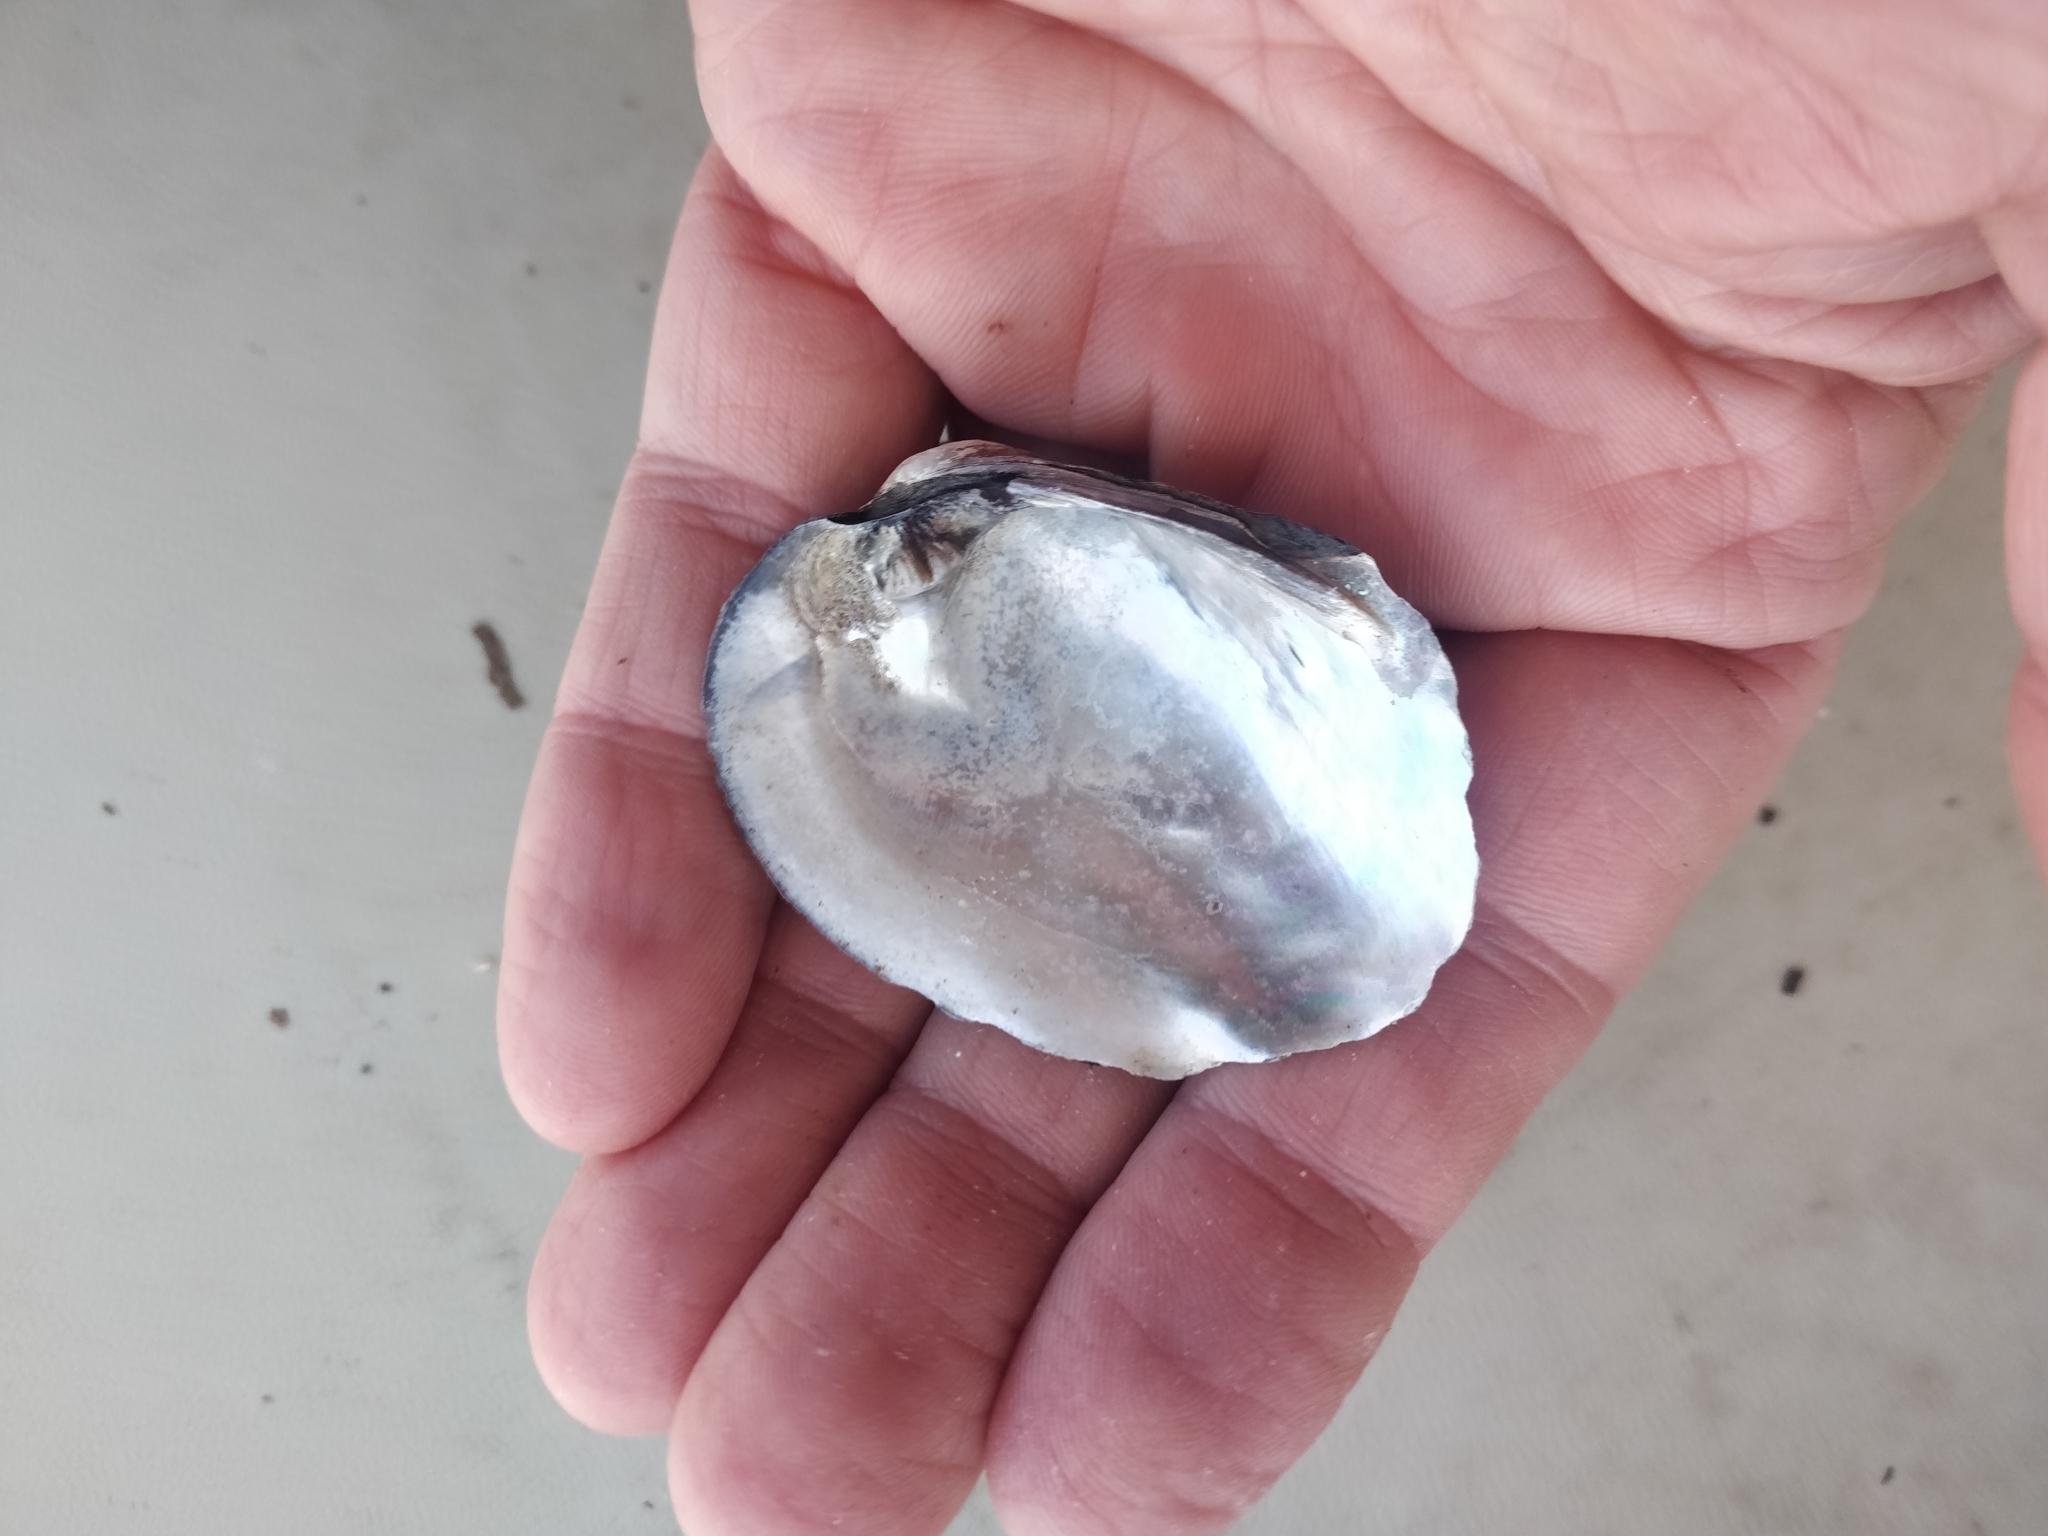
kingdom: Animalia
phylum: Mollusca
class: Bivalvia
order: Unionida
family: Unionidae
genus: Amblema
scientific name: Amblema plicata
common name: Threeridge
